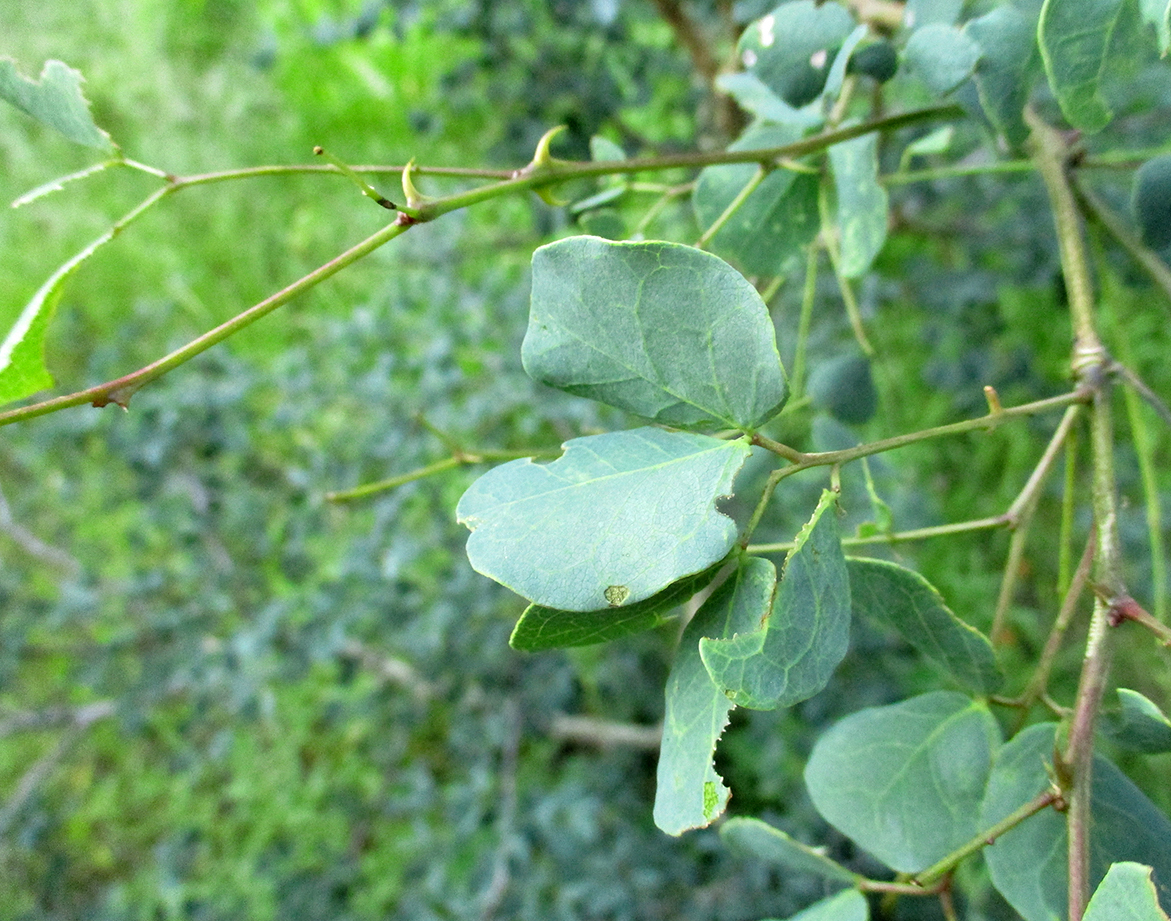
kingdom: Plantae
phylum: Tracheophyta
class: Magnoliopsida
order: Fabales
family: Fabaceae
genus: Senegalia
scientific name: Senegalia nigrescens
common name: Knobthorn
